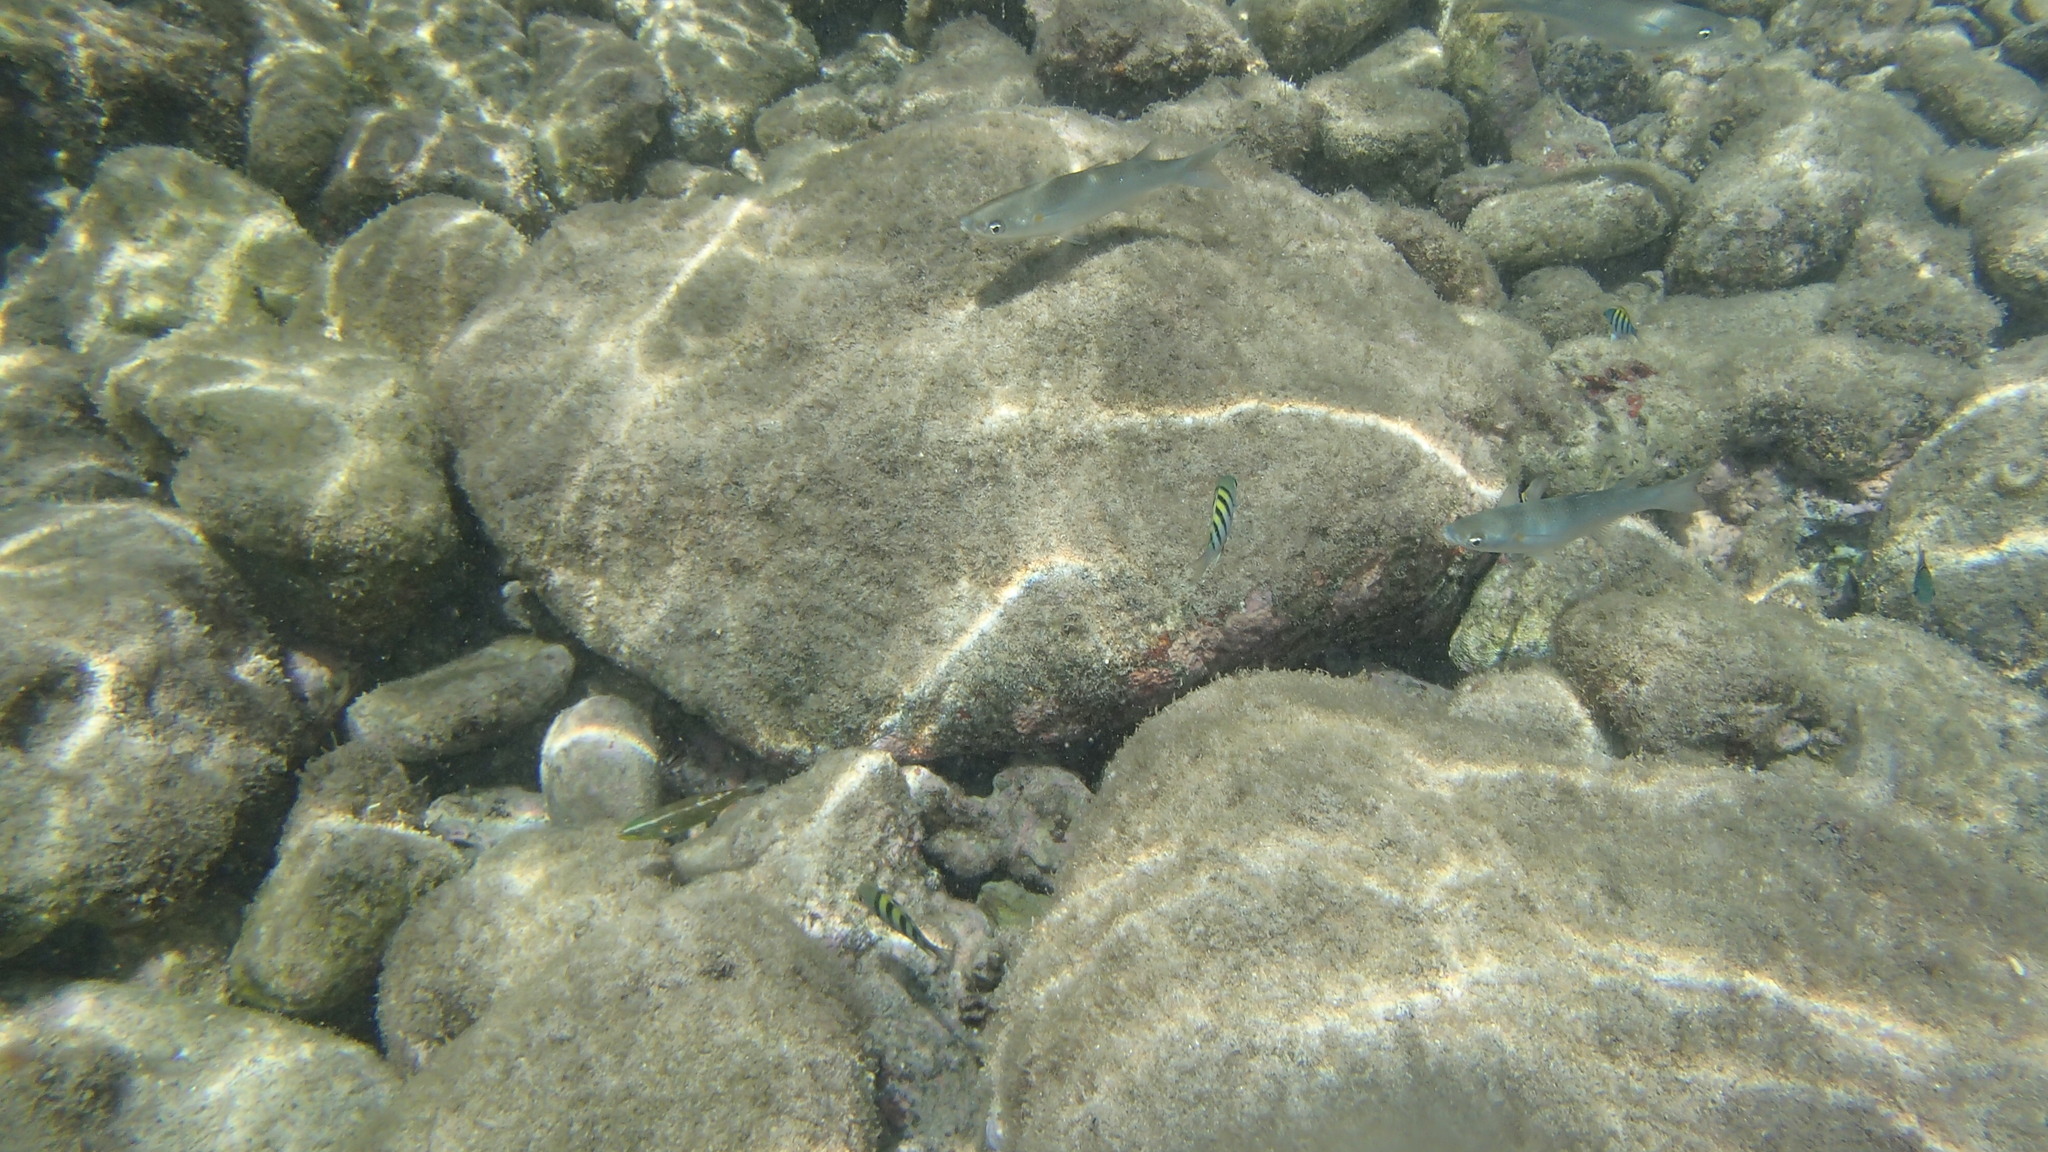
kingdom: Animalia
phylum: Chordata
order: Mugiliformes
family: Mugilidae
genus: Neomyxus
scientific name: Neomyxus leuciscus
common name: Acute-jawed mullet
